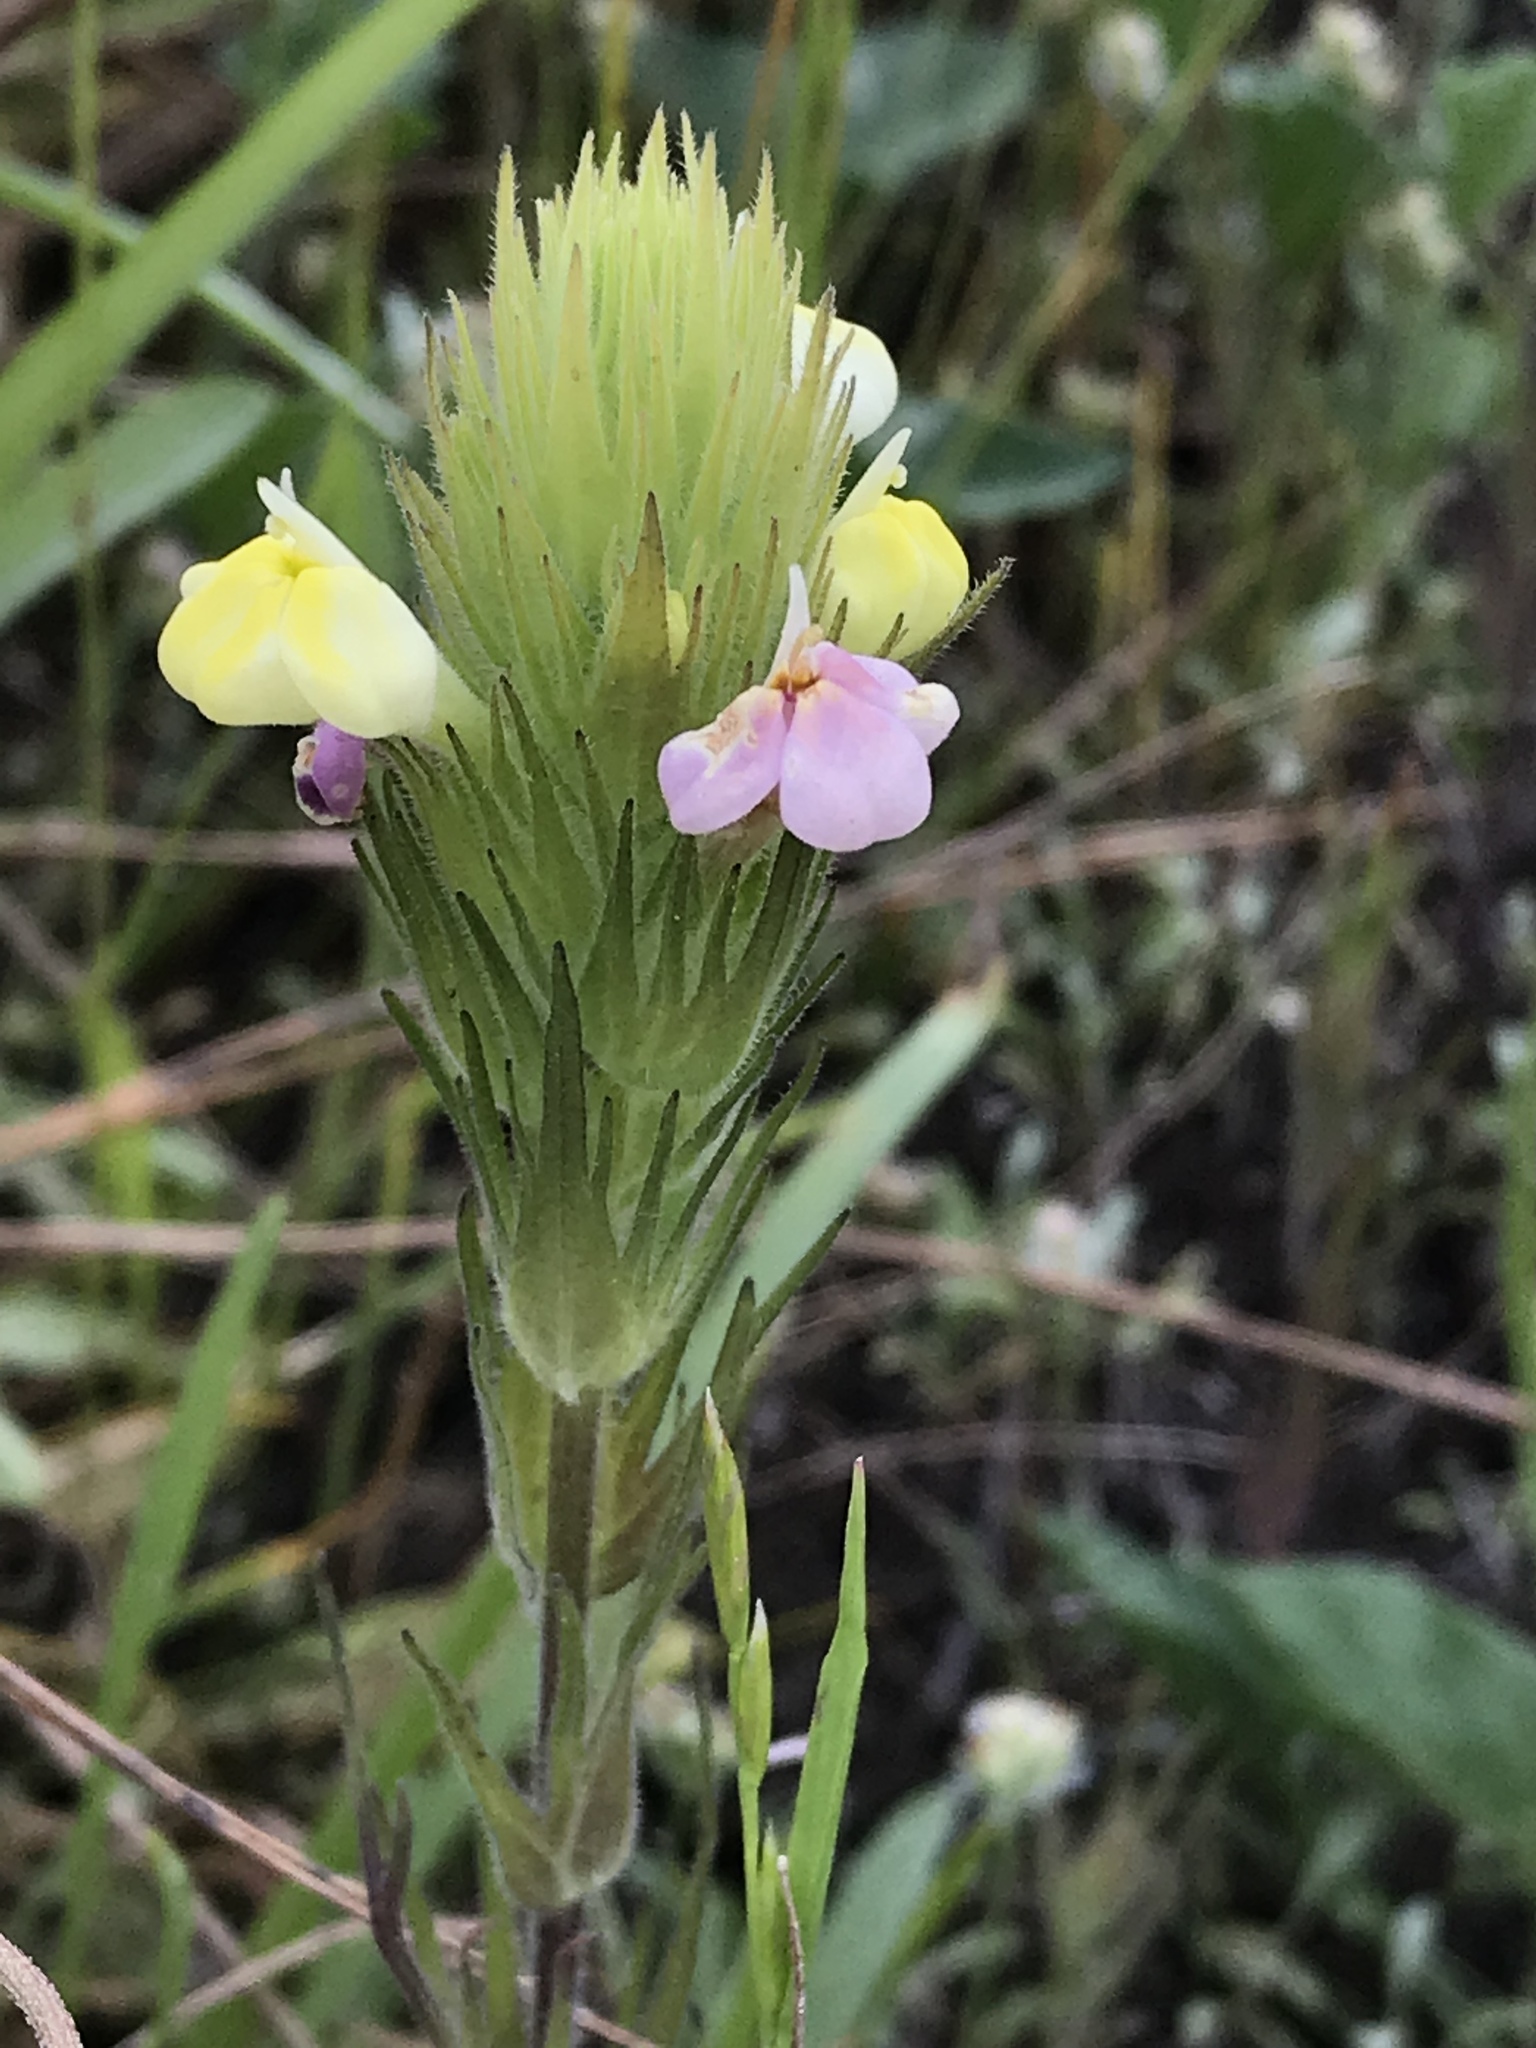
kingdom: Plantae
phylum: Tracheophyta
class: Magnoliopsida
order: Lamiales
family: Orobanchaceae
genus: Castilleja
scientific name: Castilleja rubicundula
